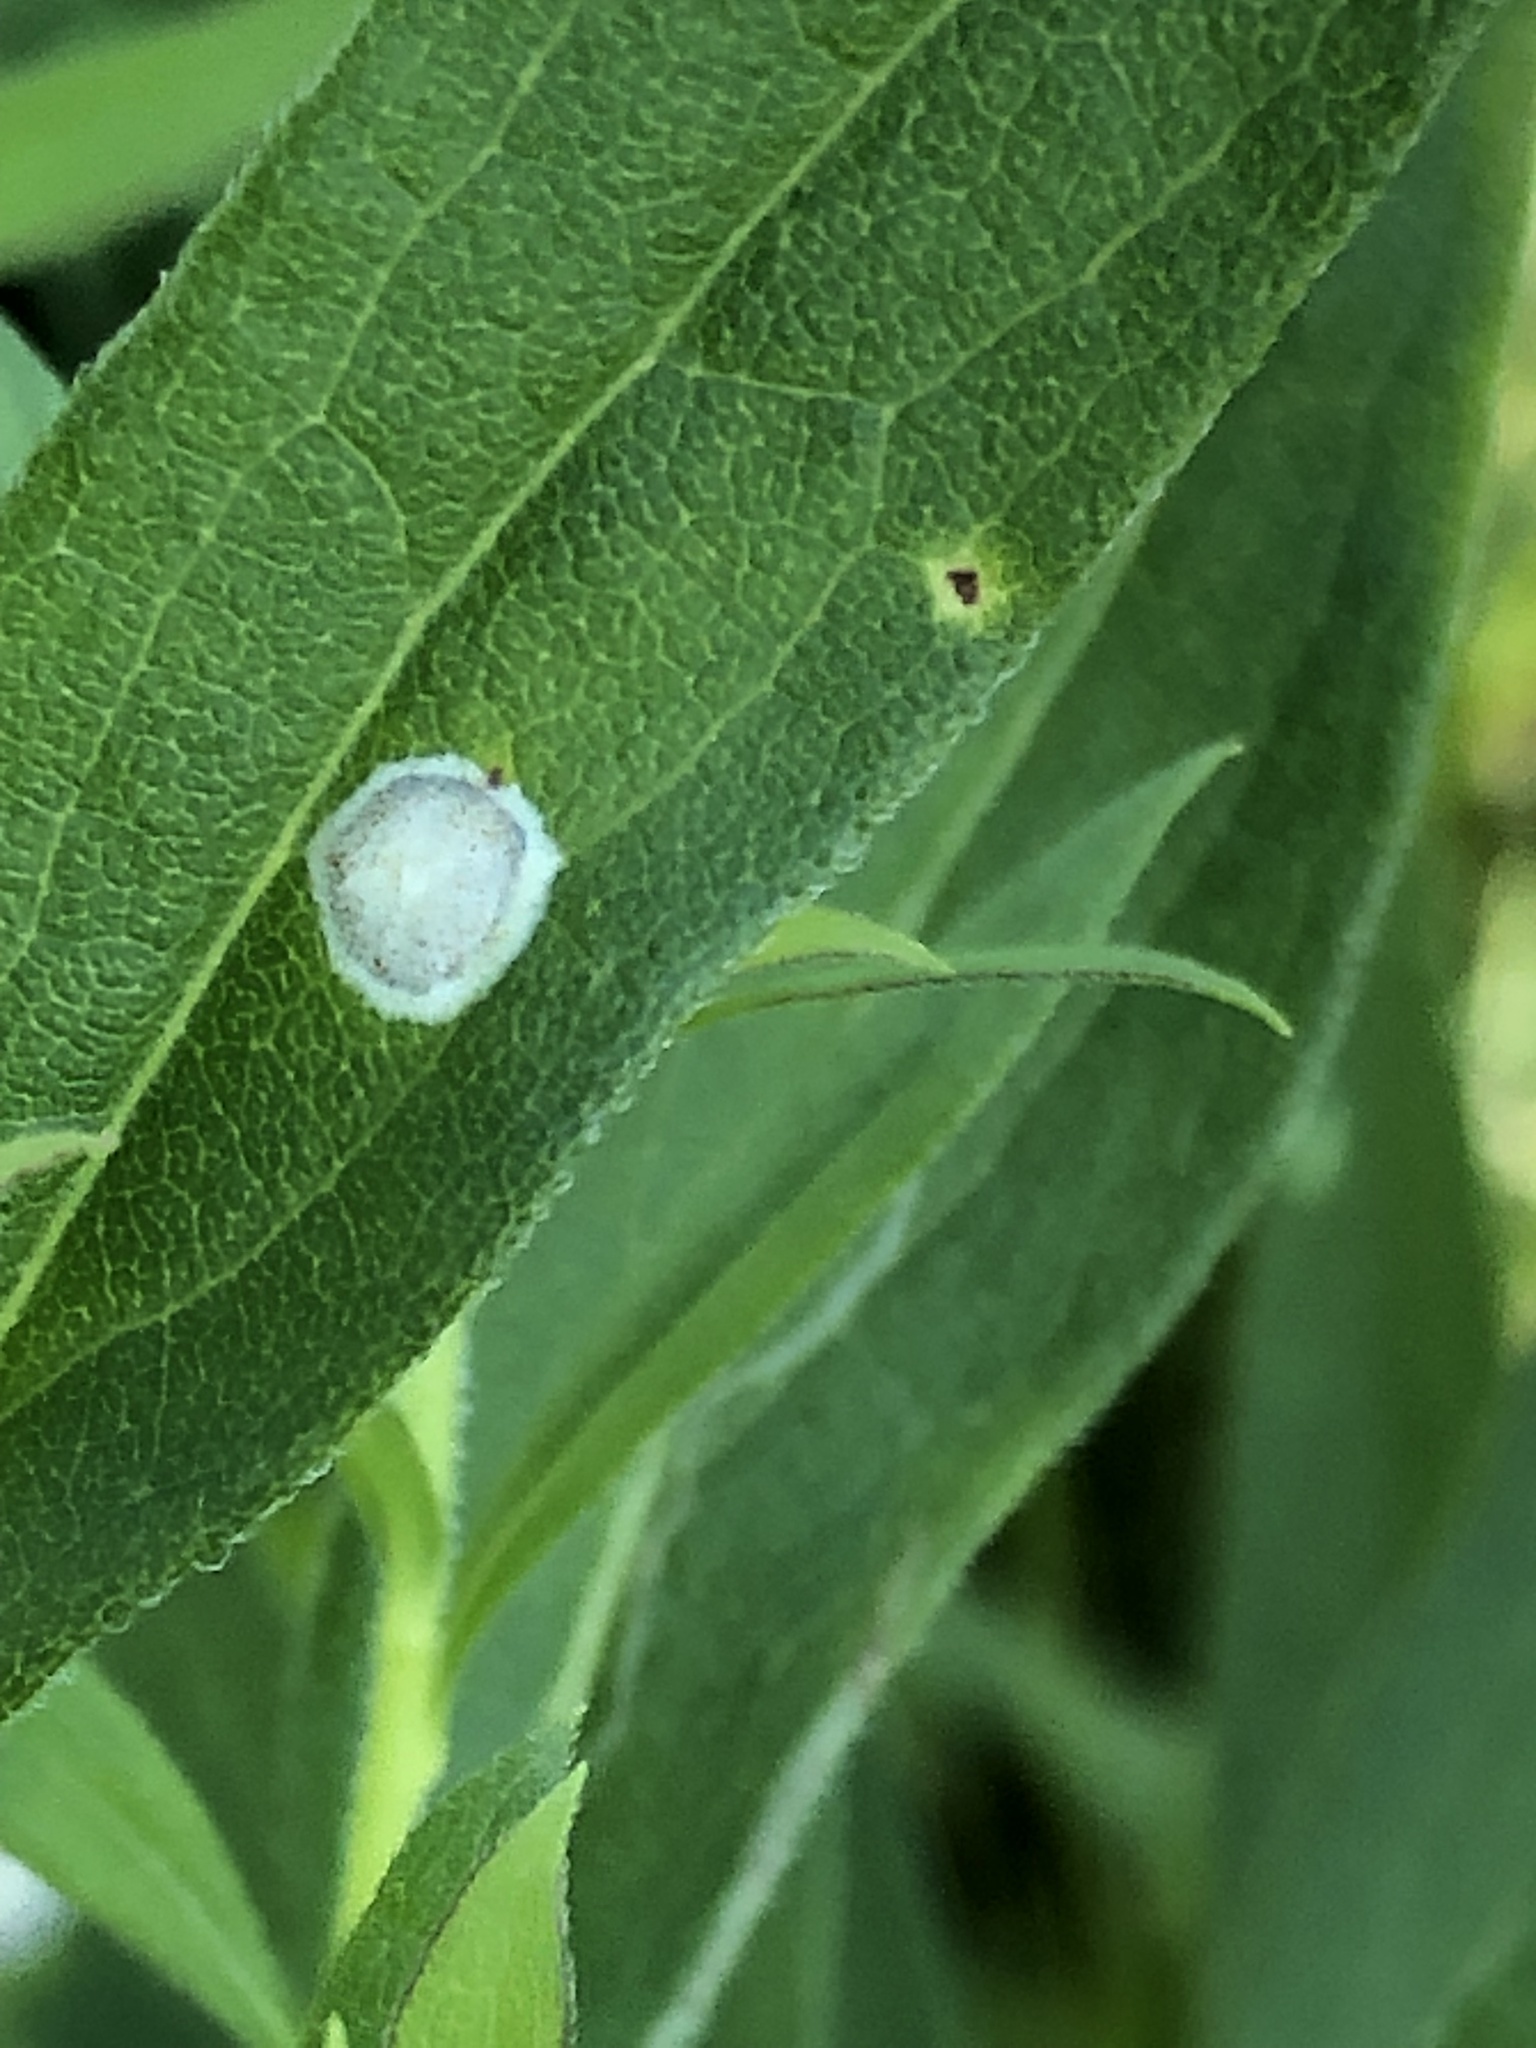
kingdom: Animalia
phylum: Arthropoda
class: Insecta
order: Diptera
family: Cecidomyiidae
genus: Asteromyia
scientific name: Asteromyia carbonifera
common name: Carbonifera goldenrod gall midge
